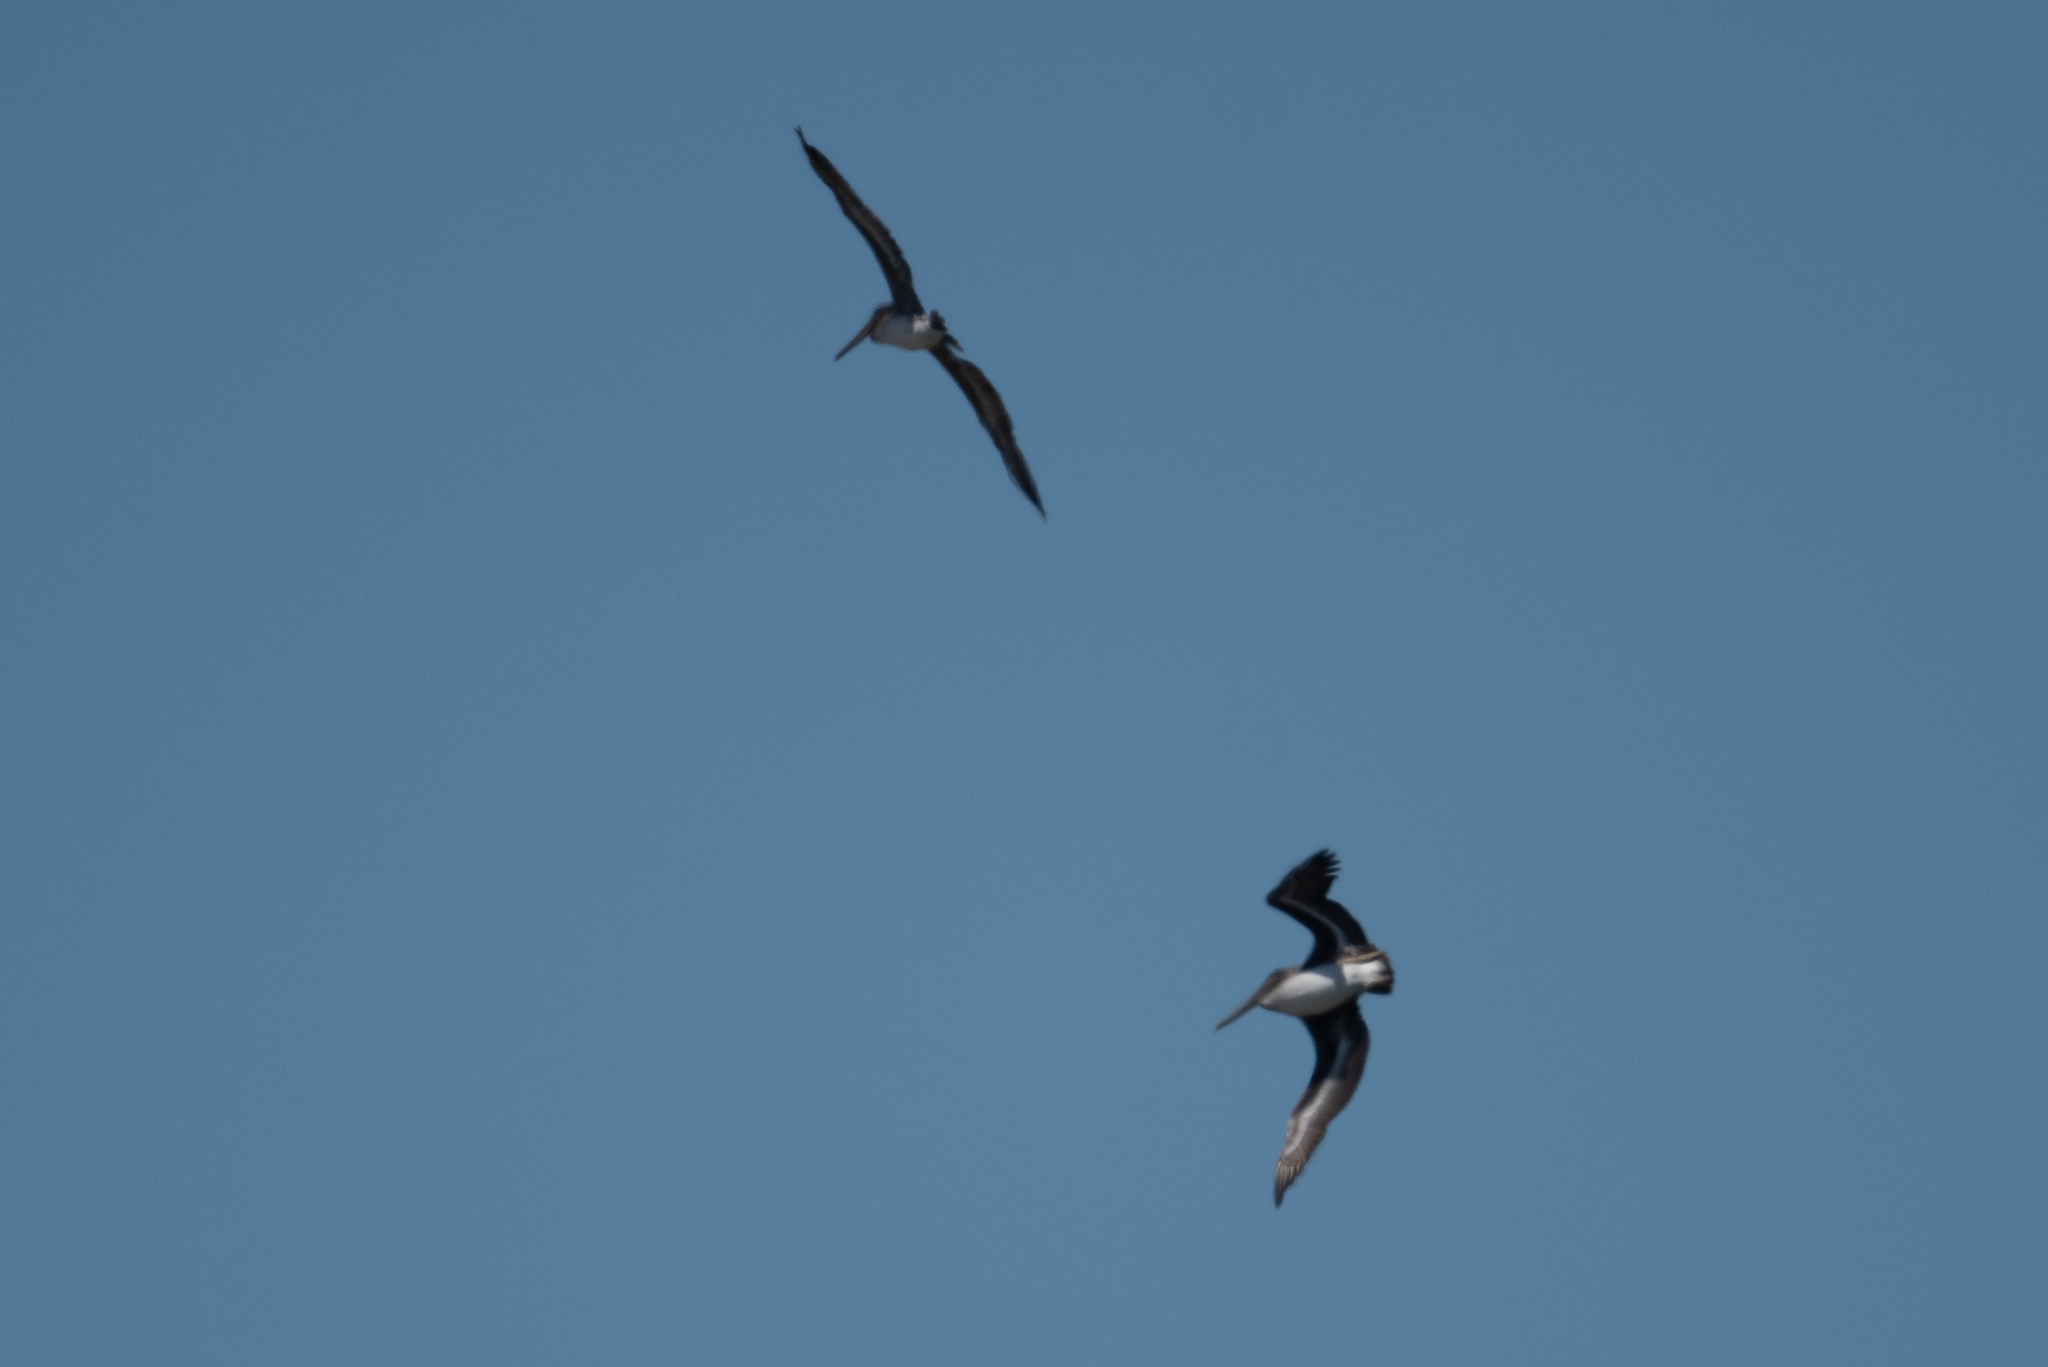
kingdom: Animalia
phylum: Chordata
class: Aves
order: Pelecaniformes
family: Pelecanidae
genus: Pelecanus
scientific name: Pelecanus occidentalis
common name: Brown pelican
